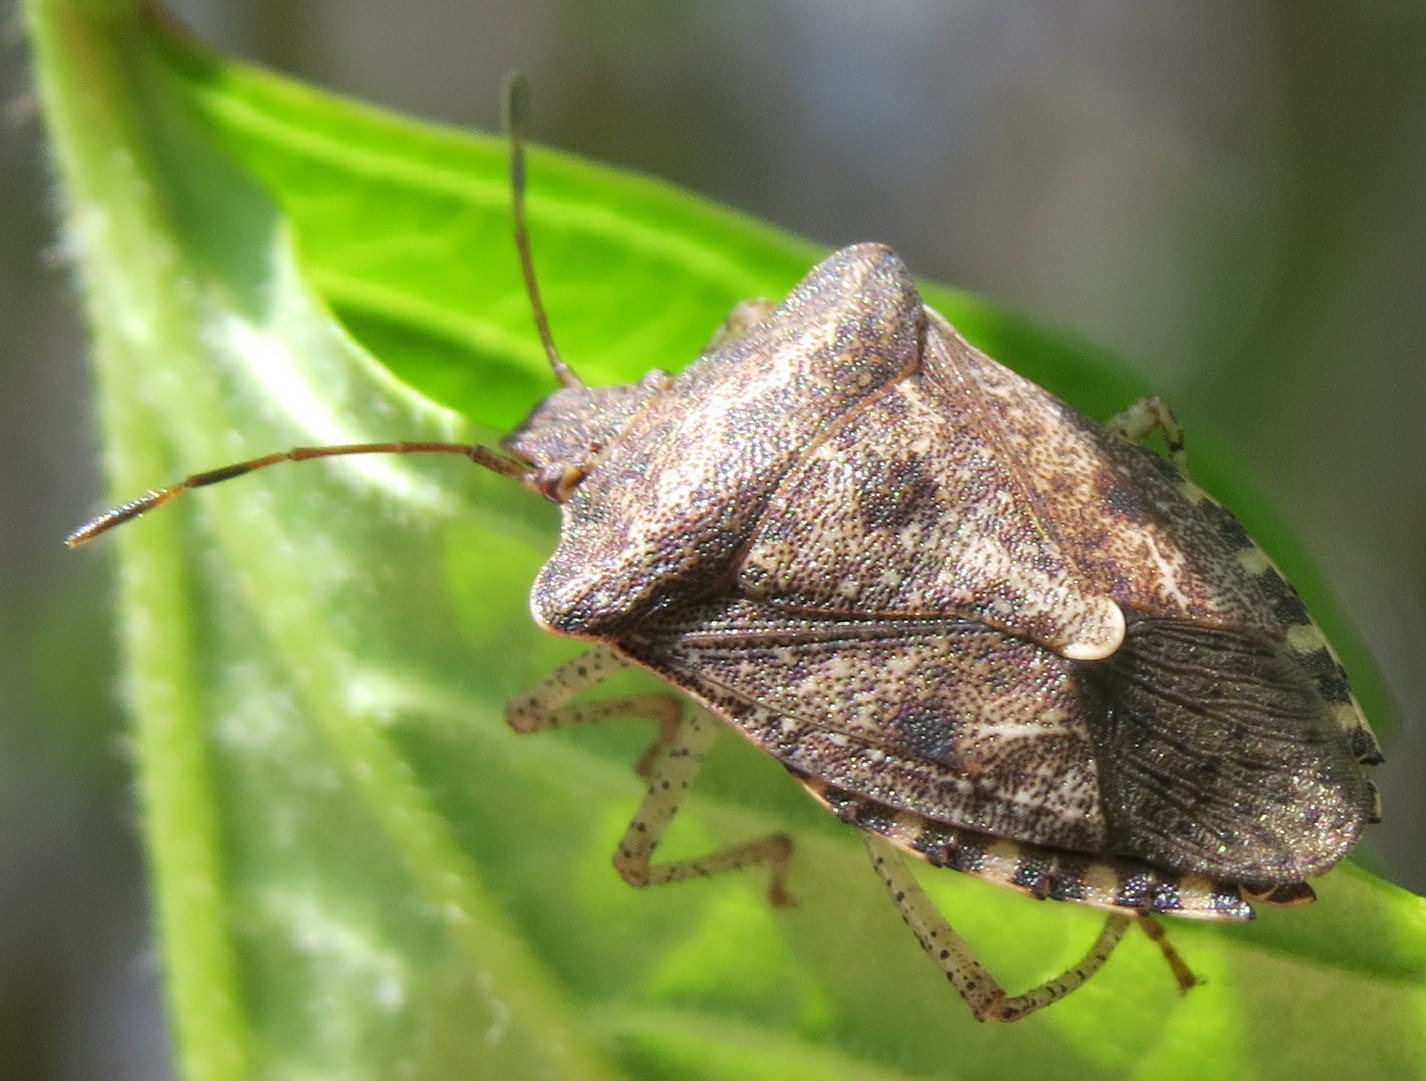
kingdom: Animalia
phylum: Arthropoda
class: Insecta
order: Hemiptera
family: Pentatomidae
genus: Euschistus
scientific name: Euschistus
